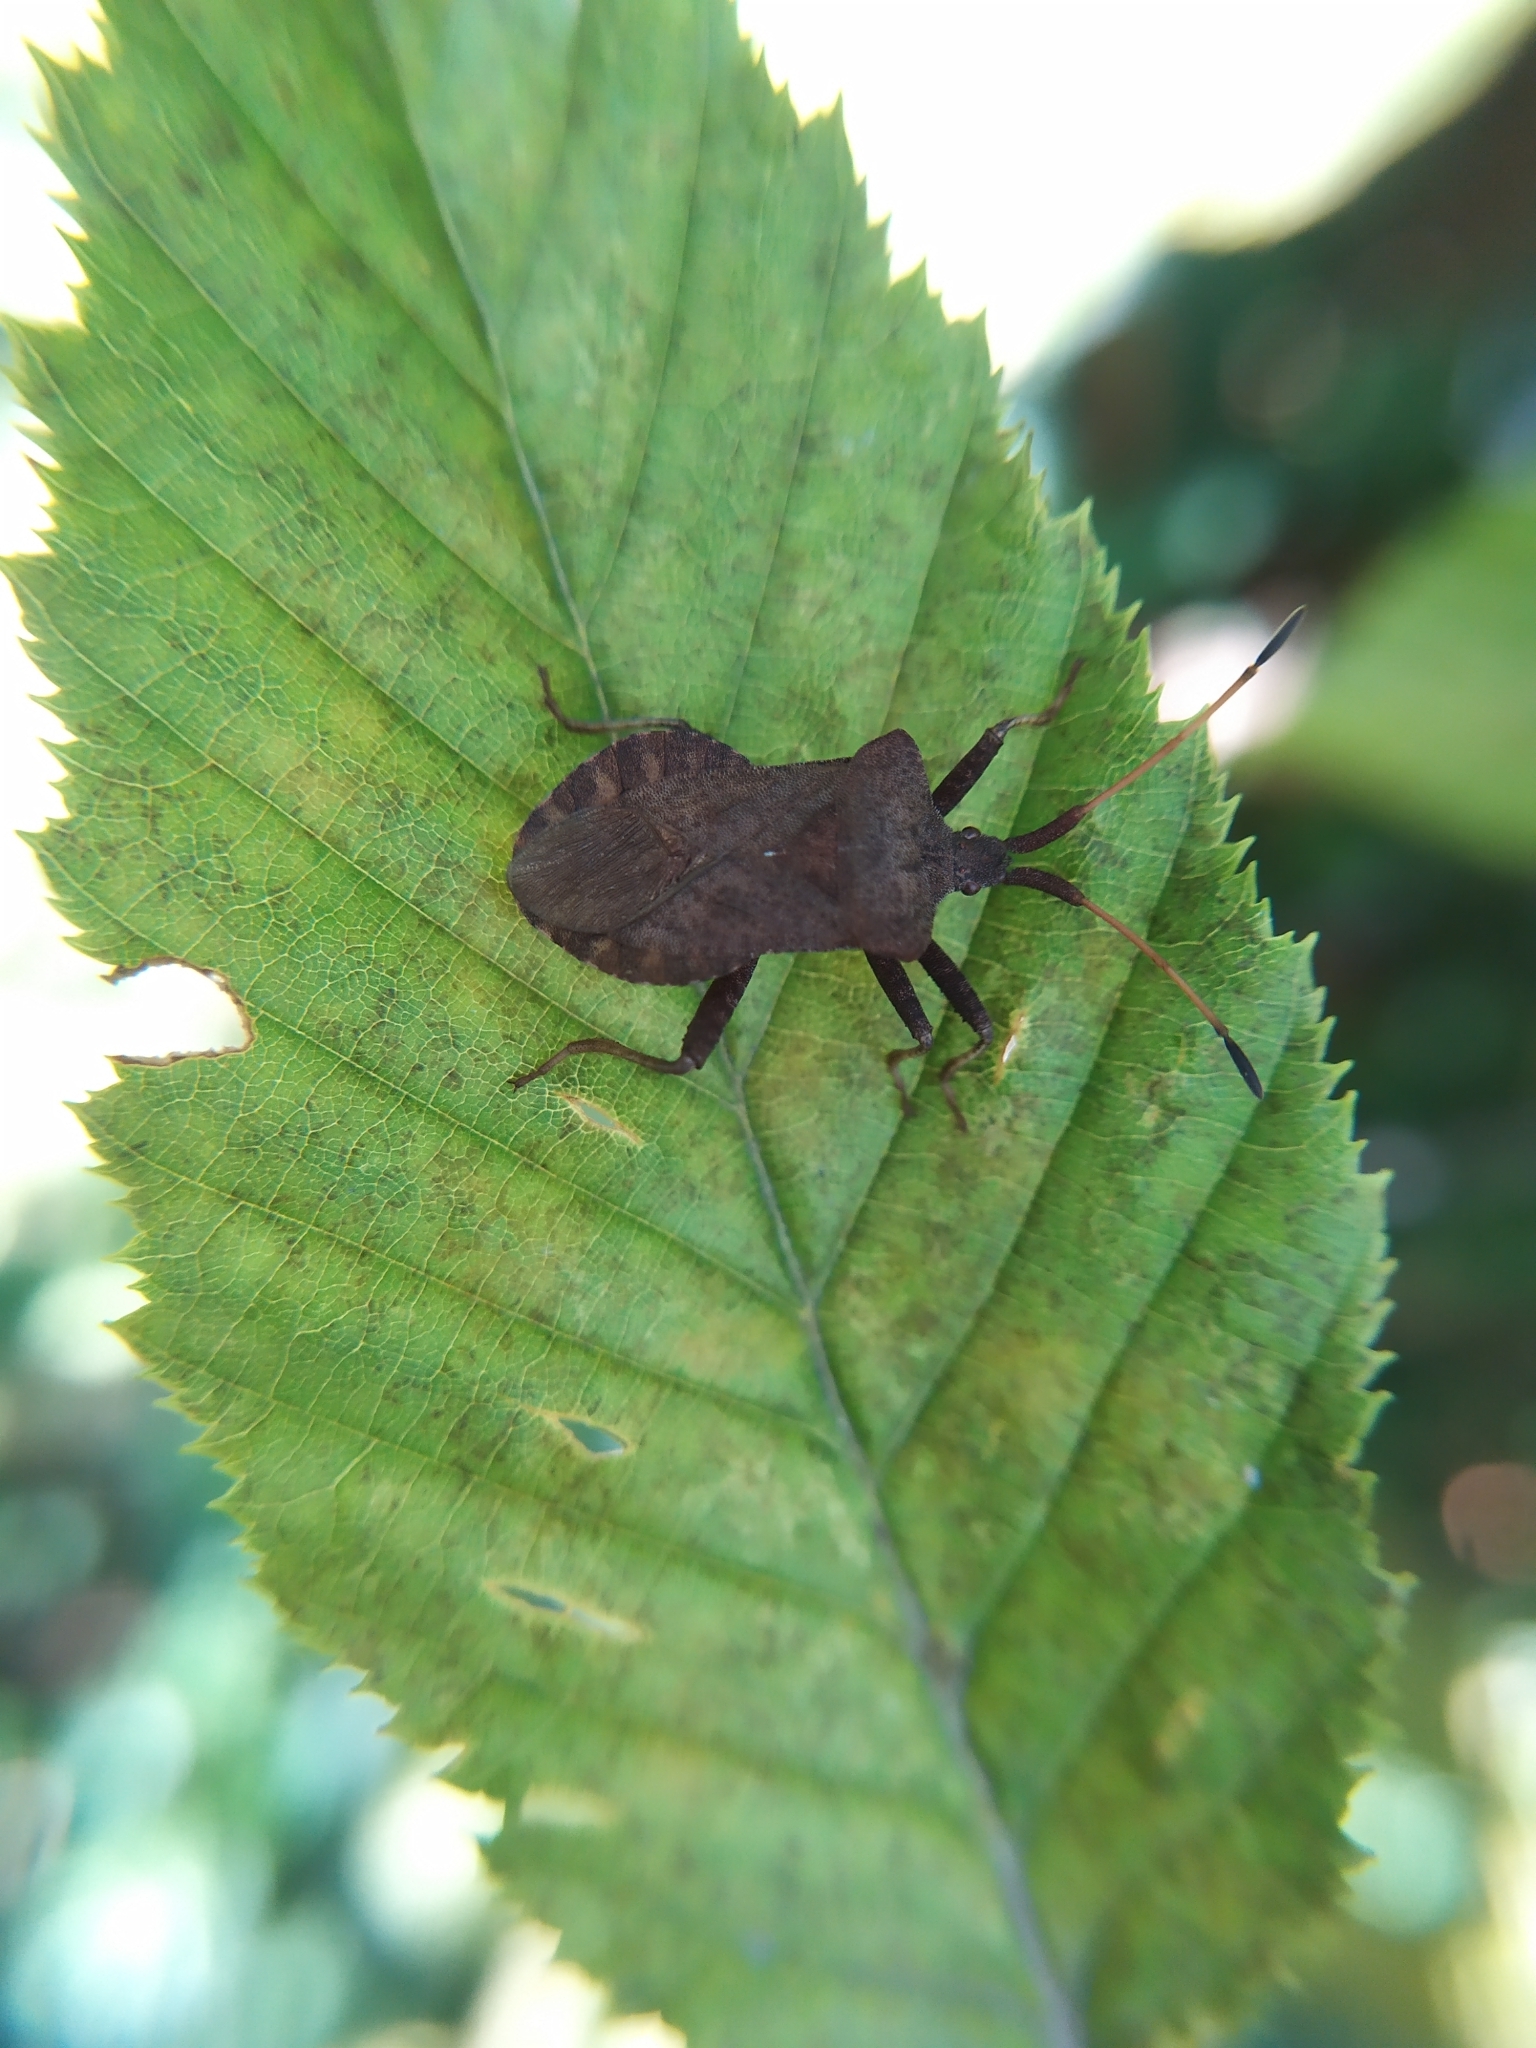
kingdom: Animalia
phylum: Arthropoda
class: Insecta
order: Hemiptera
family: Coreidae
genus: Coreus
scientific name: Coreus marginatus
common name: Dock bug
